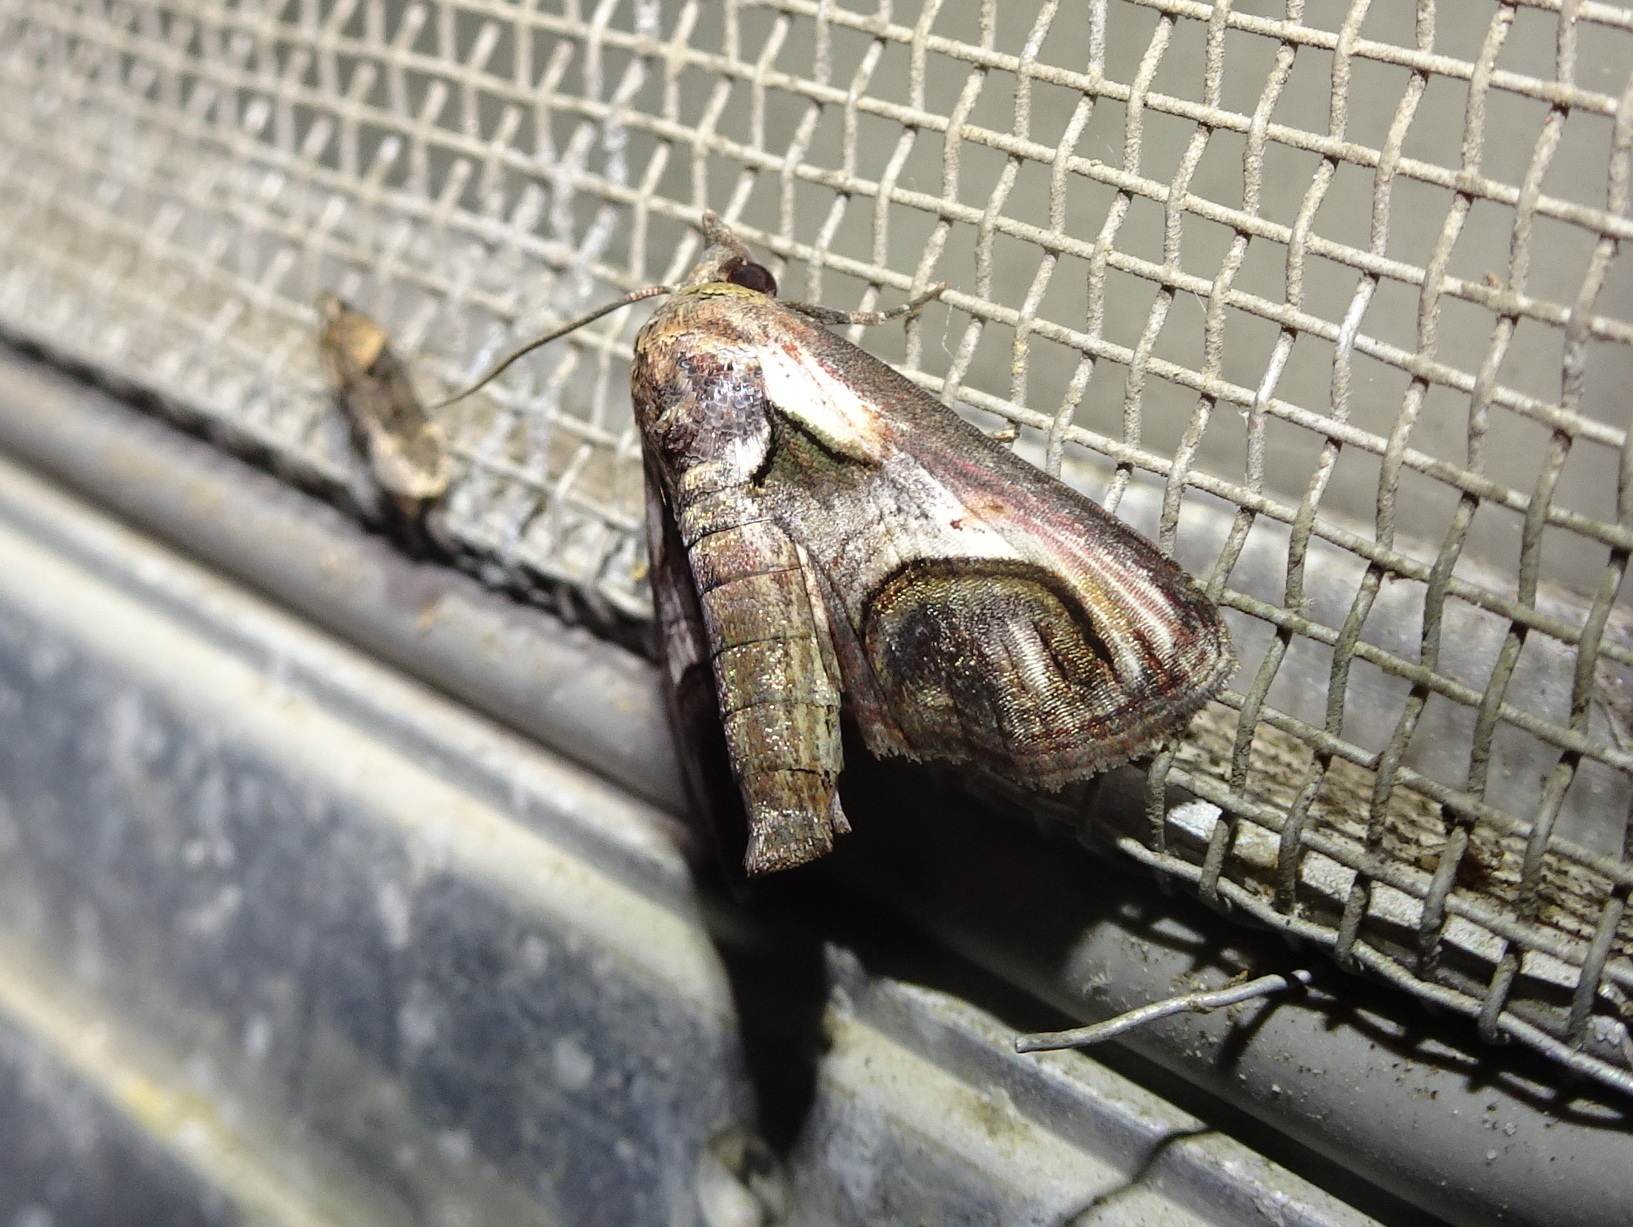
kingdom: Animalia
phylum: Arthropoda
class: Insecta
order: Lepidoptera
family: Euteliidae
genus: Paectes
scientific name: Paectes oculatrix
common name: Eyed paectes moth
